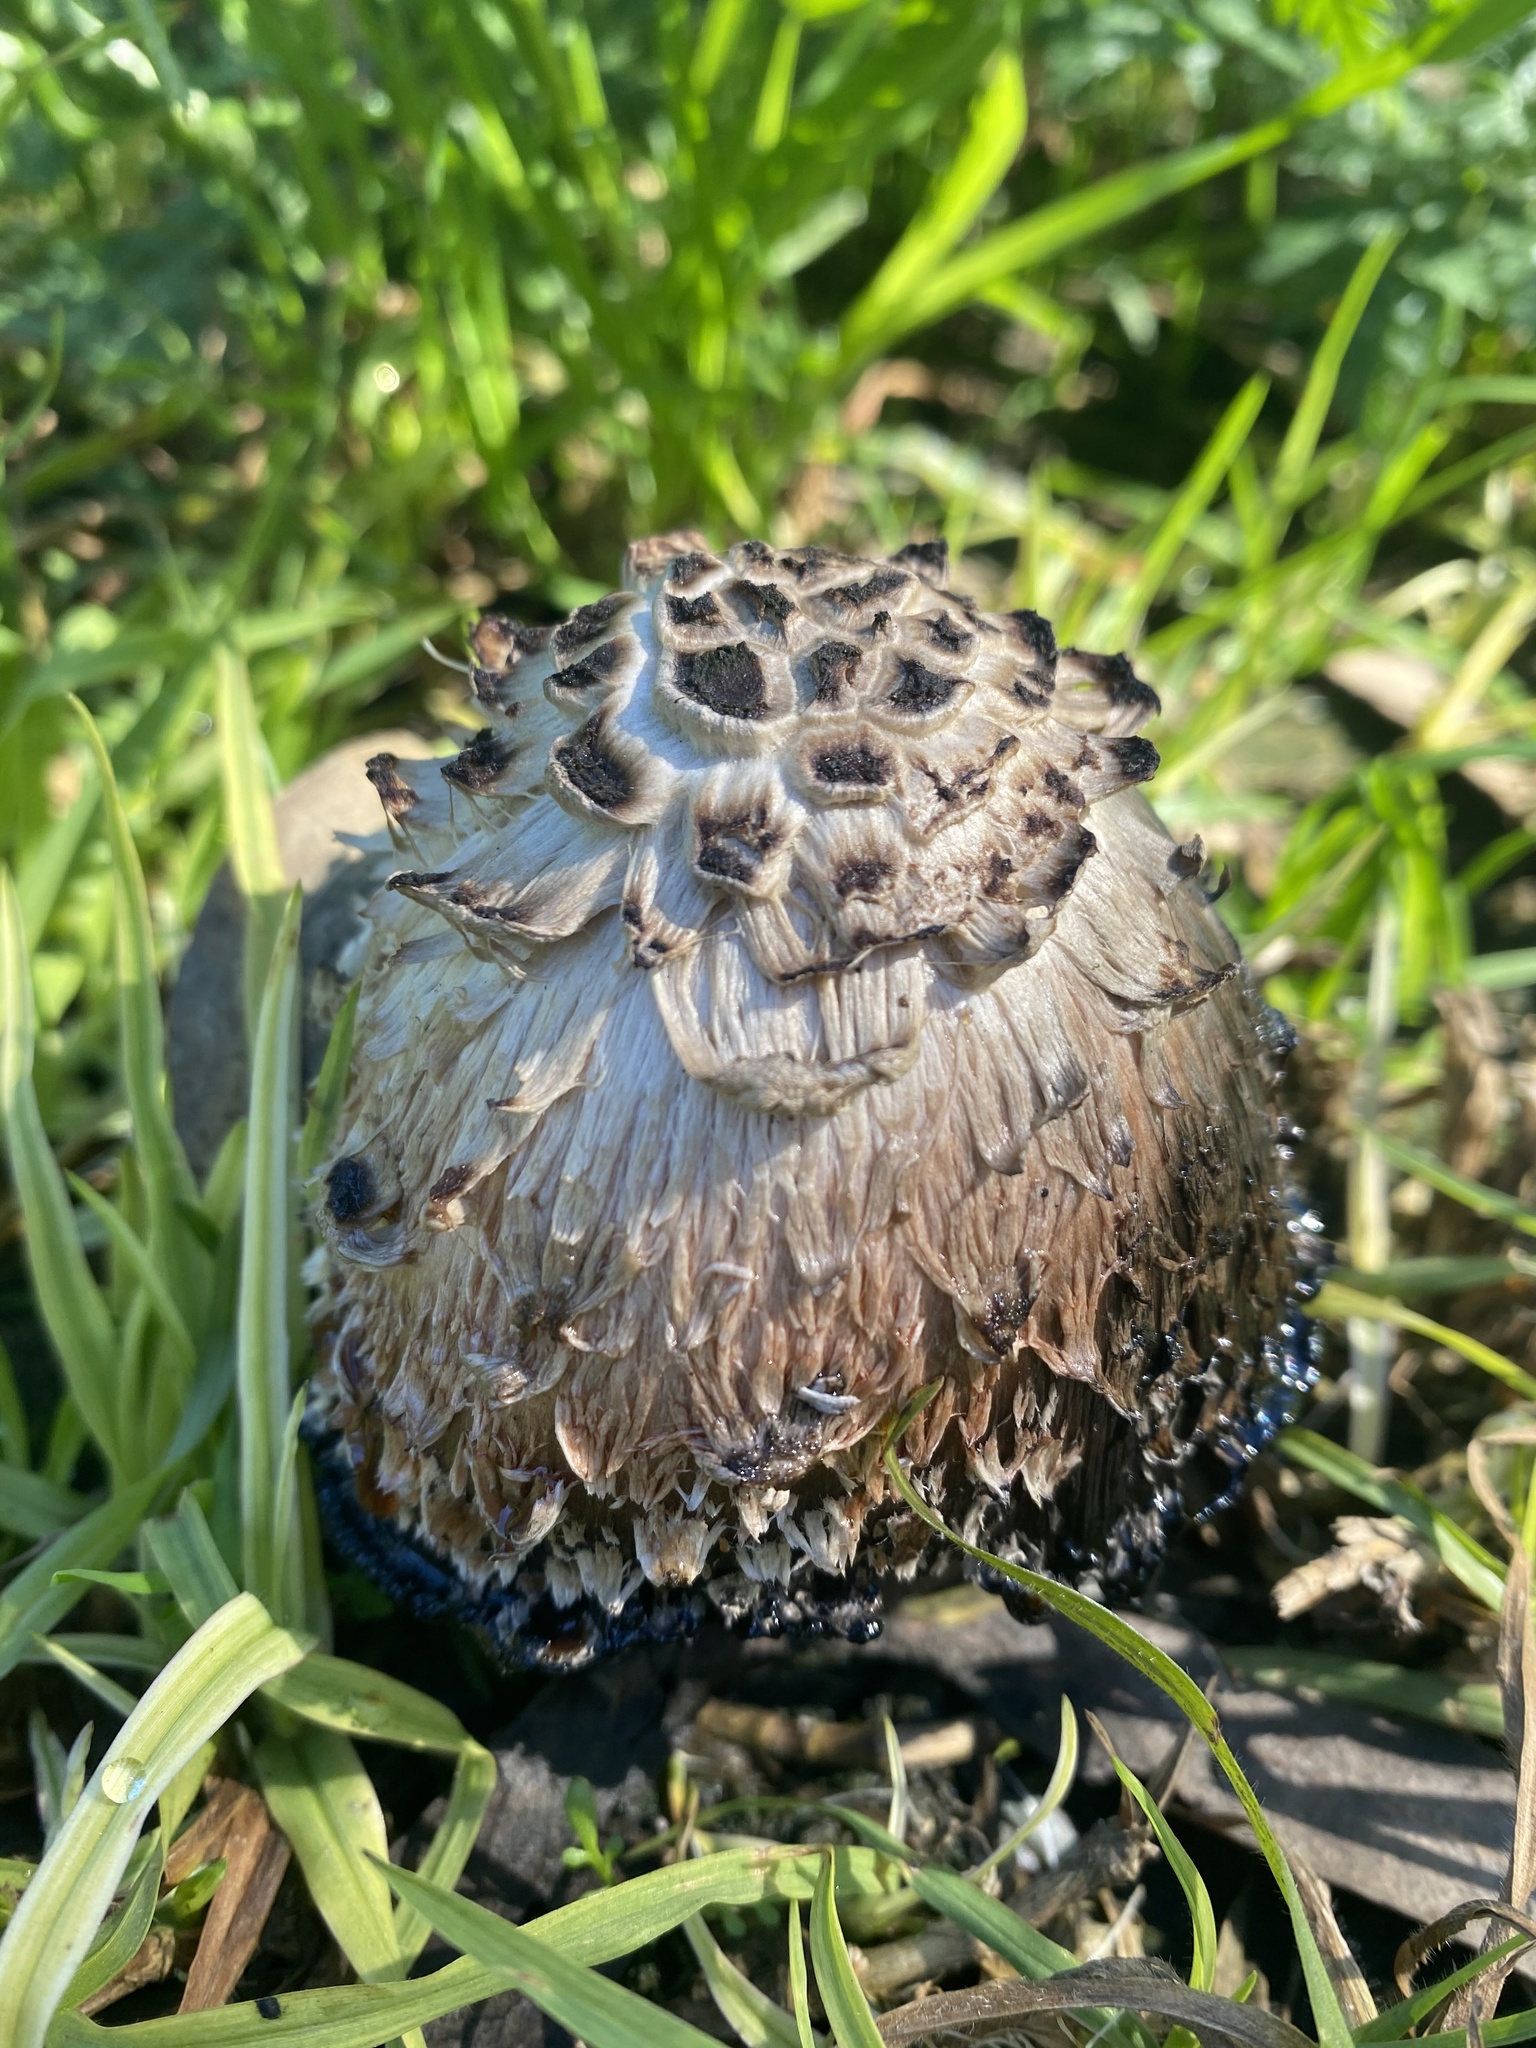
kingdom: Fungi
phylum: Basidiomycota
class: Agaricomycetes
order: Agaricales
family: Agaricaceae
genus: Coprinus
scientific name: Coprinus comatus
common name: Lawyer's wig
